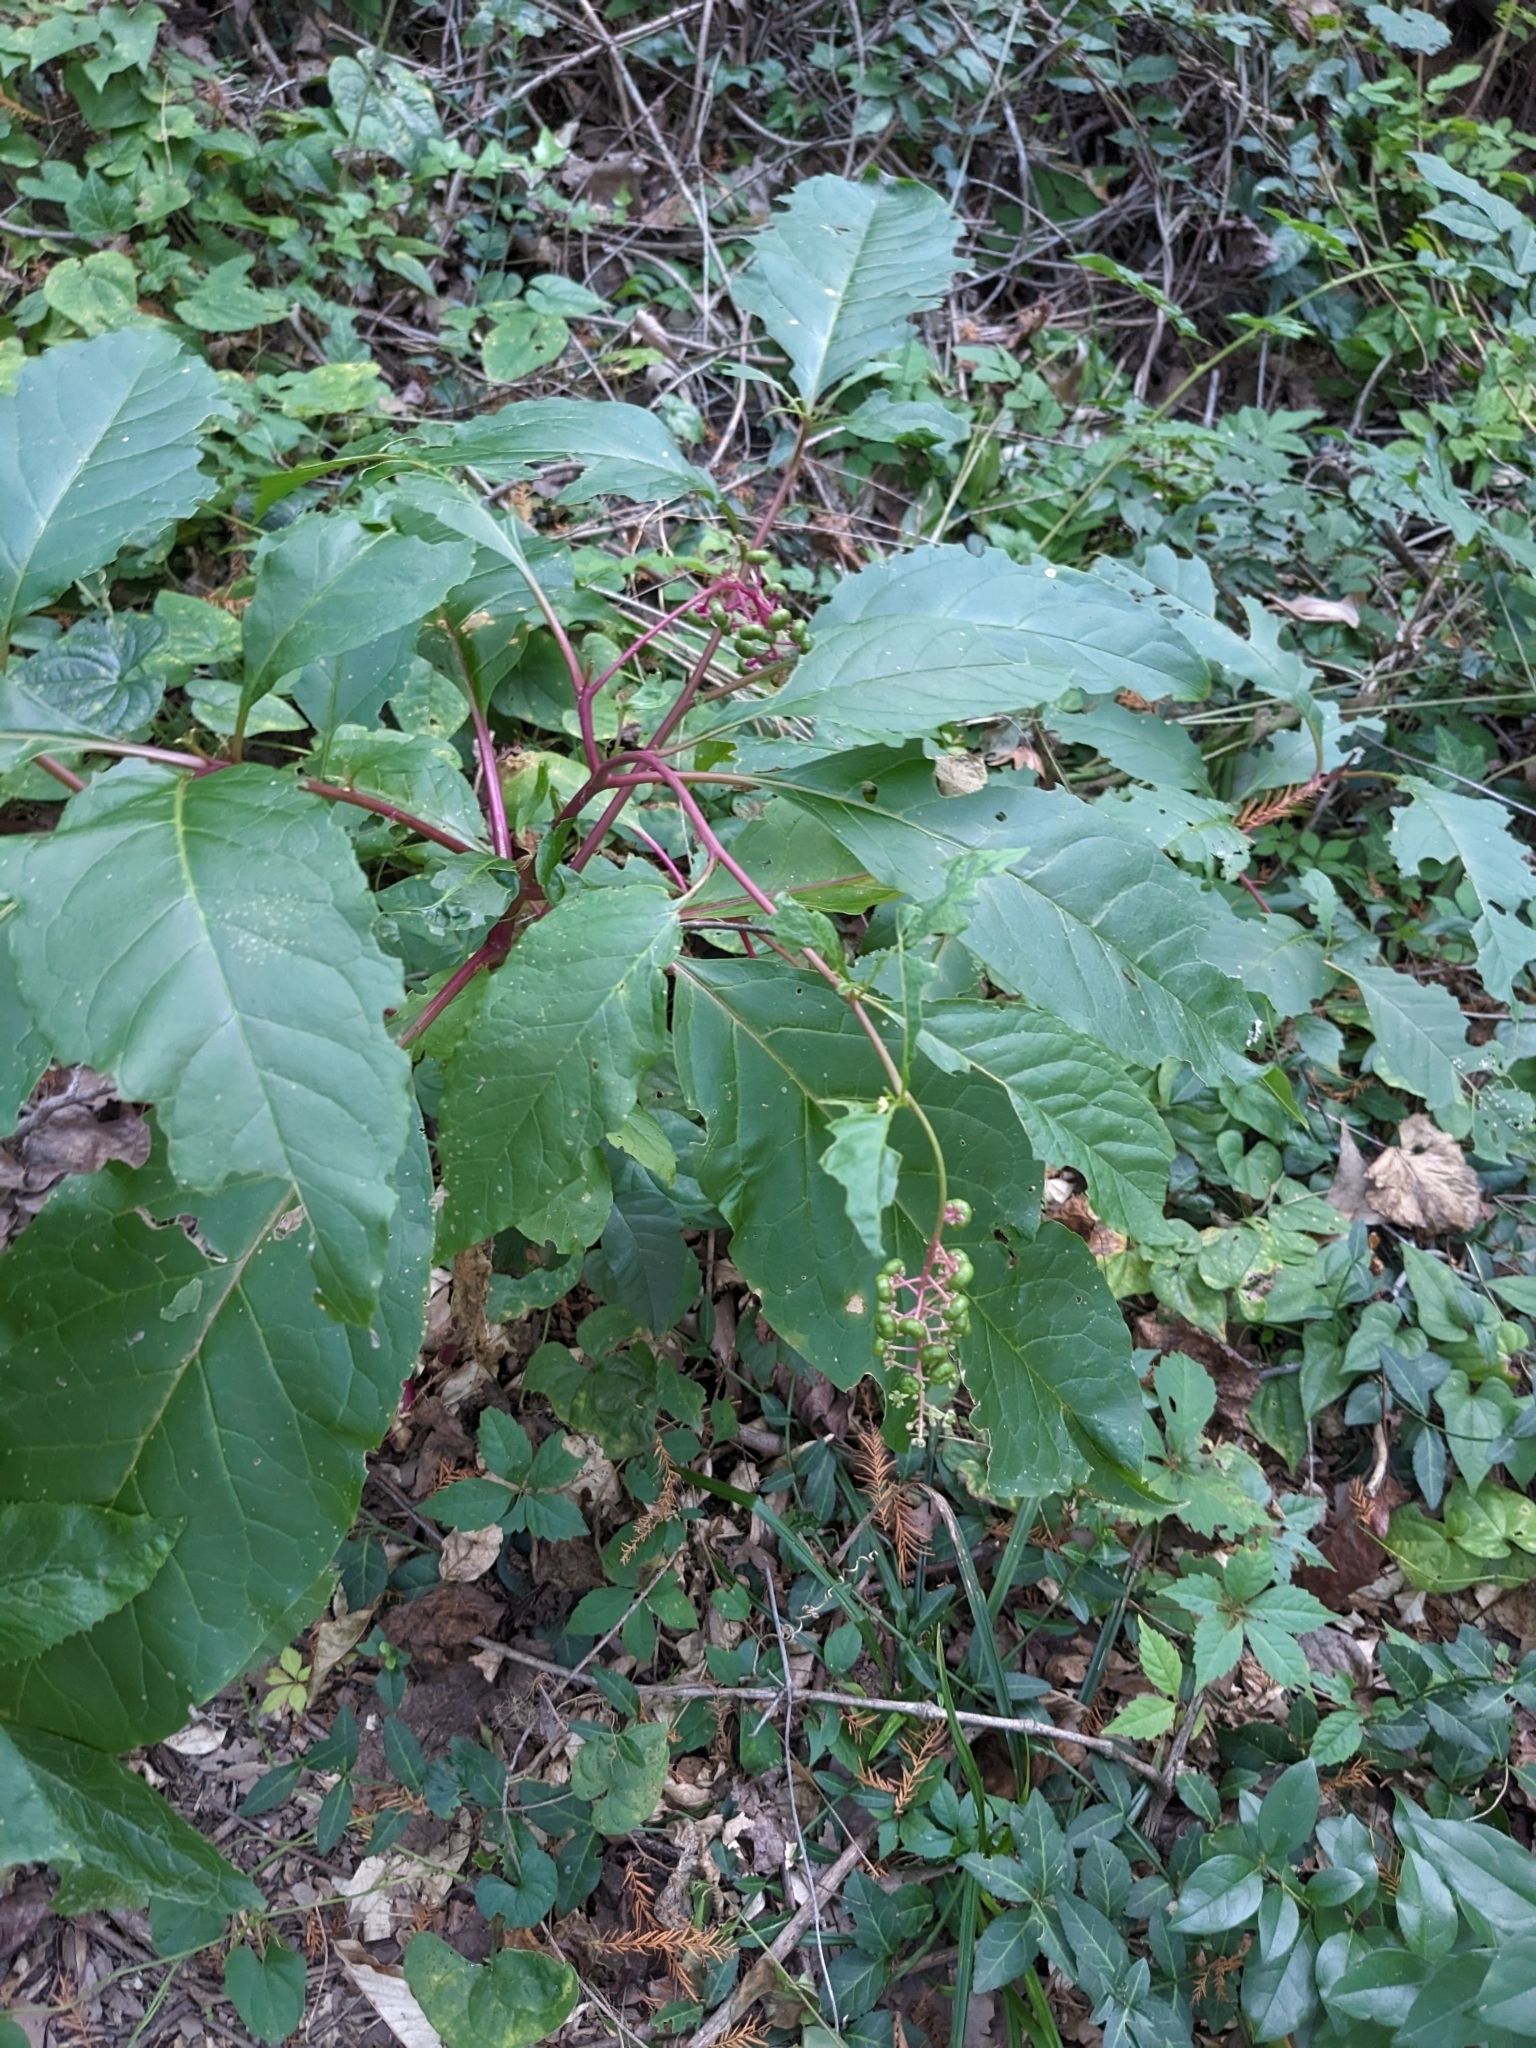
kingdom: Plantae
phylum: Tracheophyta
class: Magnoliopsida
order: Caryophyllales
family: Phytolaccaceae
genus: Phytolacca
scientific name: Phytolacca americana
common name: American pokeweed
